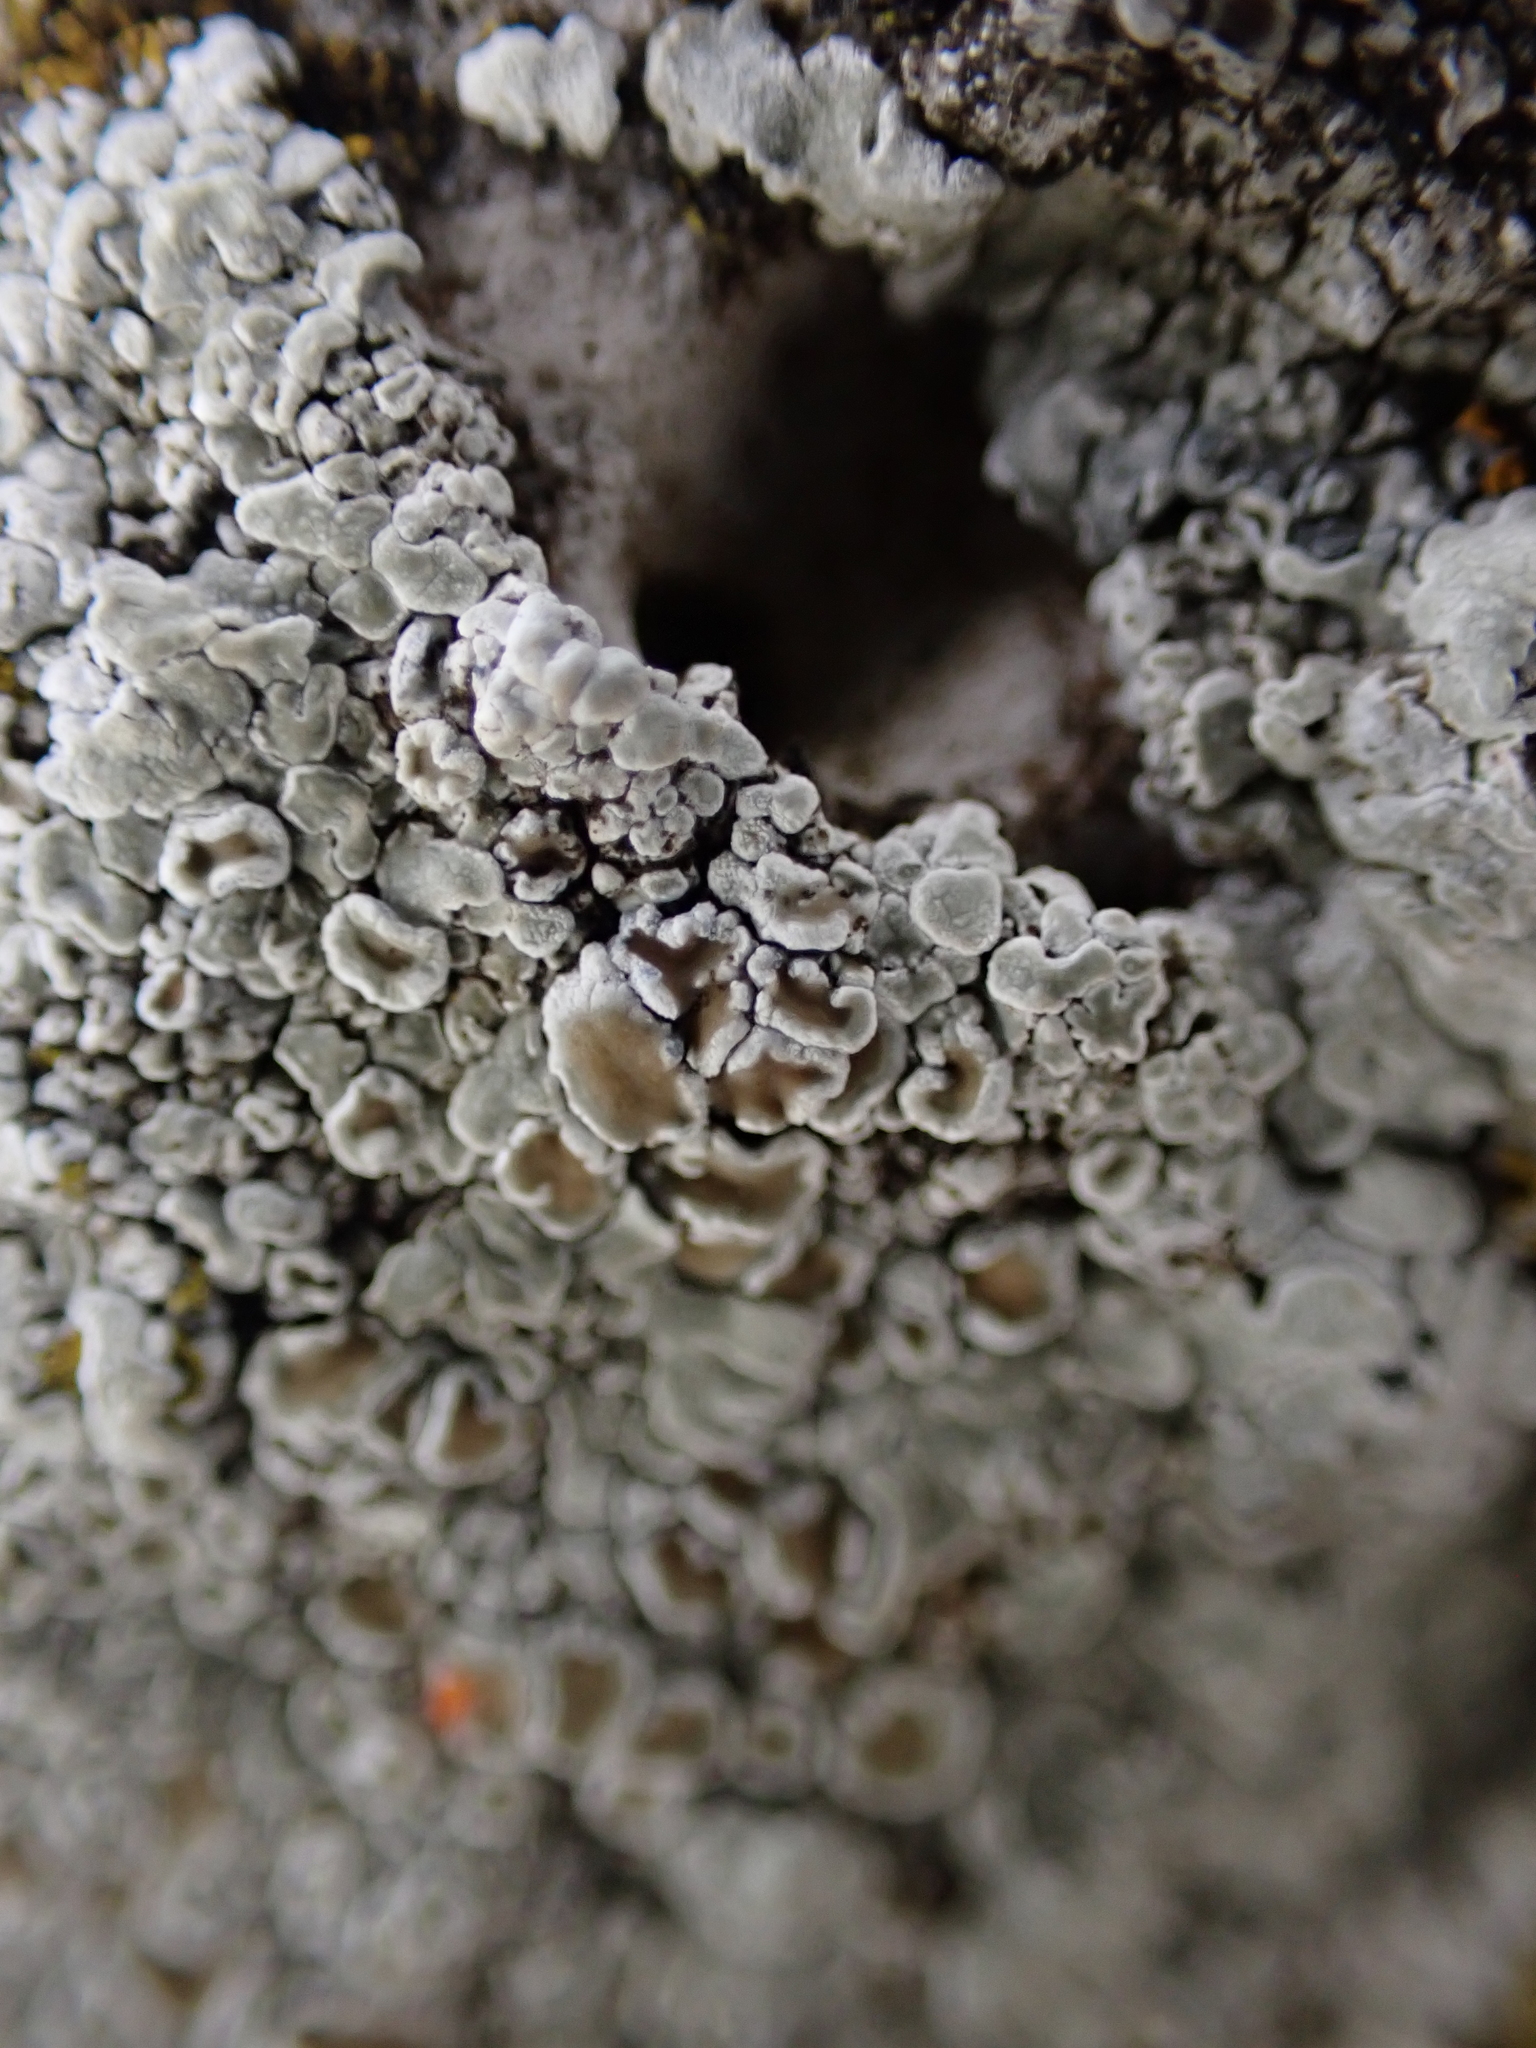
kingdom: Fungi
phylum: Ascomycota
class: Lecanoromycetes
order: Lecanorales
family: Lecanoraceae
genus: Protoparmeliopsis
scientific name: Protoparmeliopsis muralis
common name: Stonewall rim lichen
